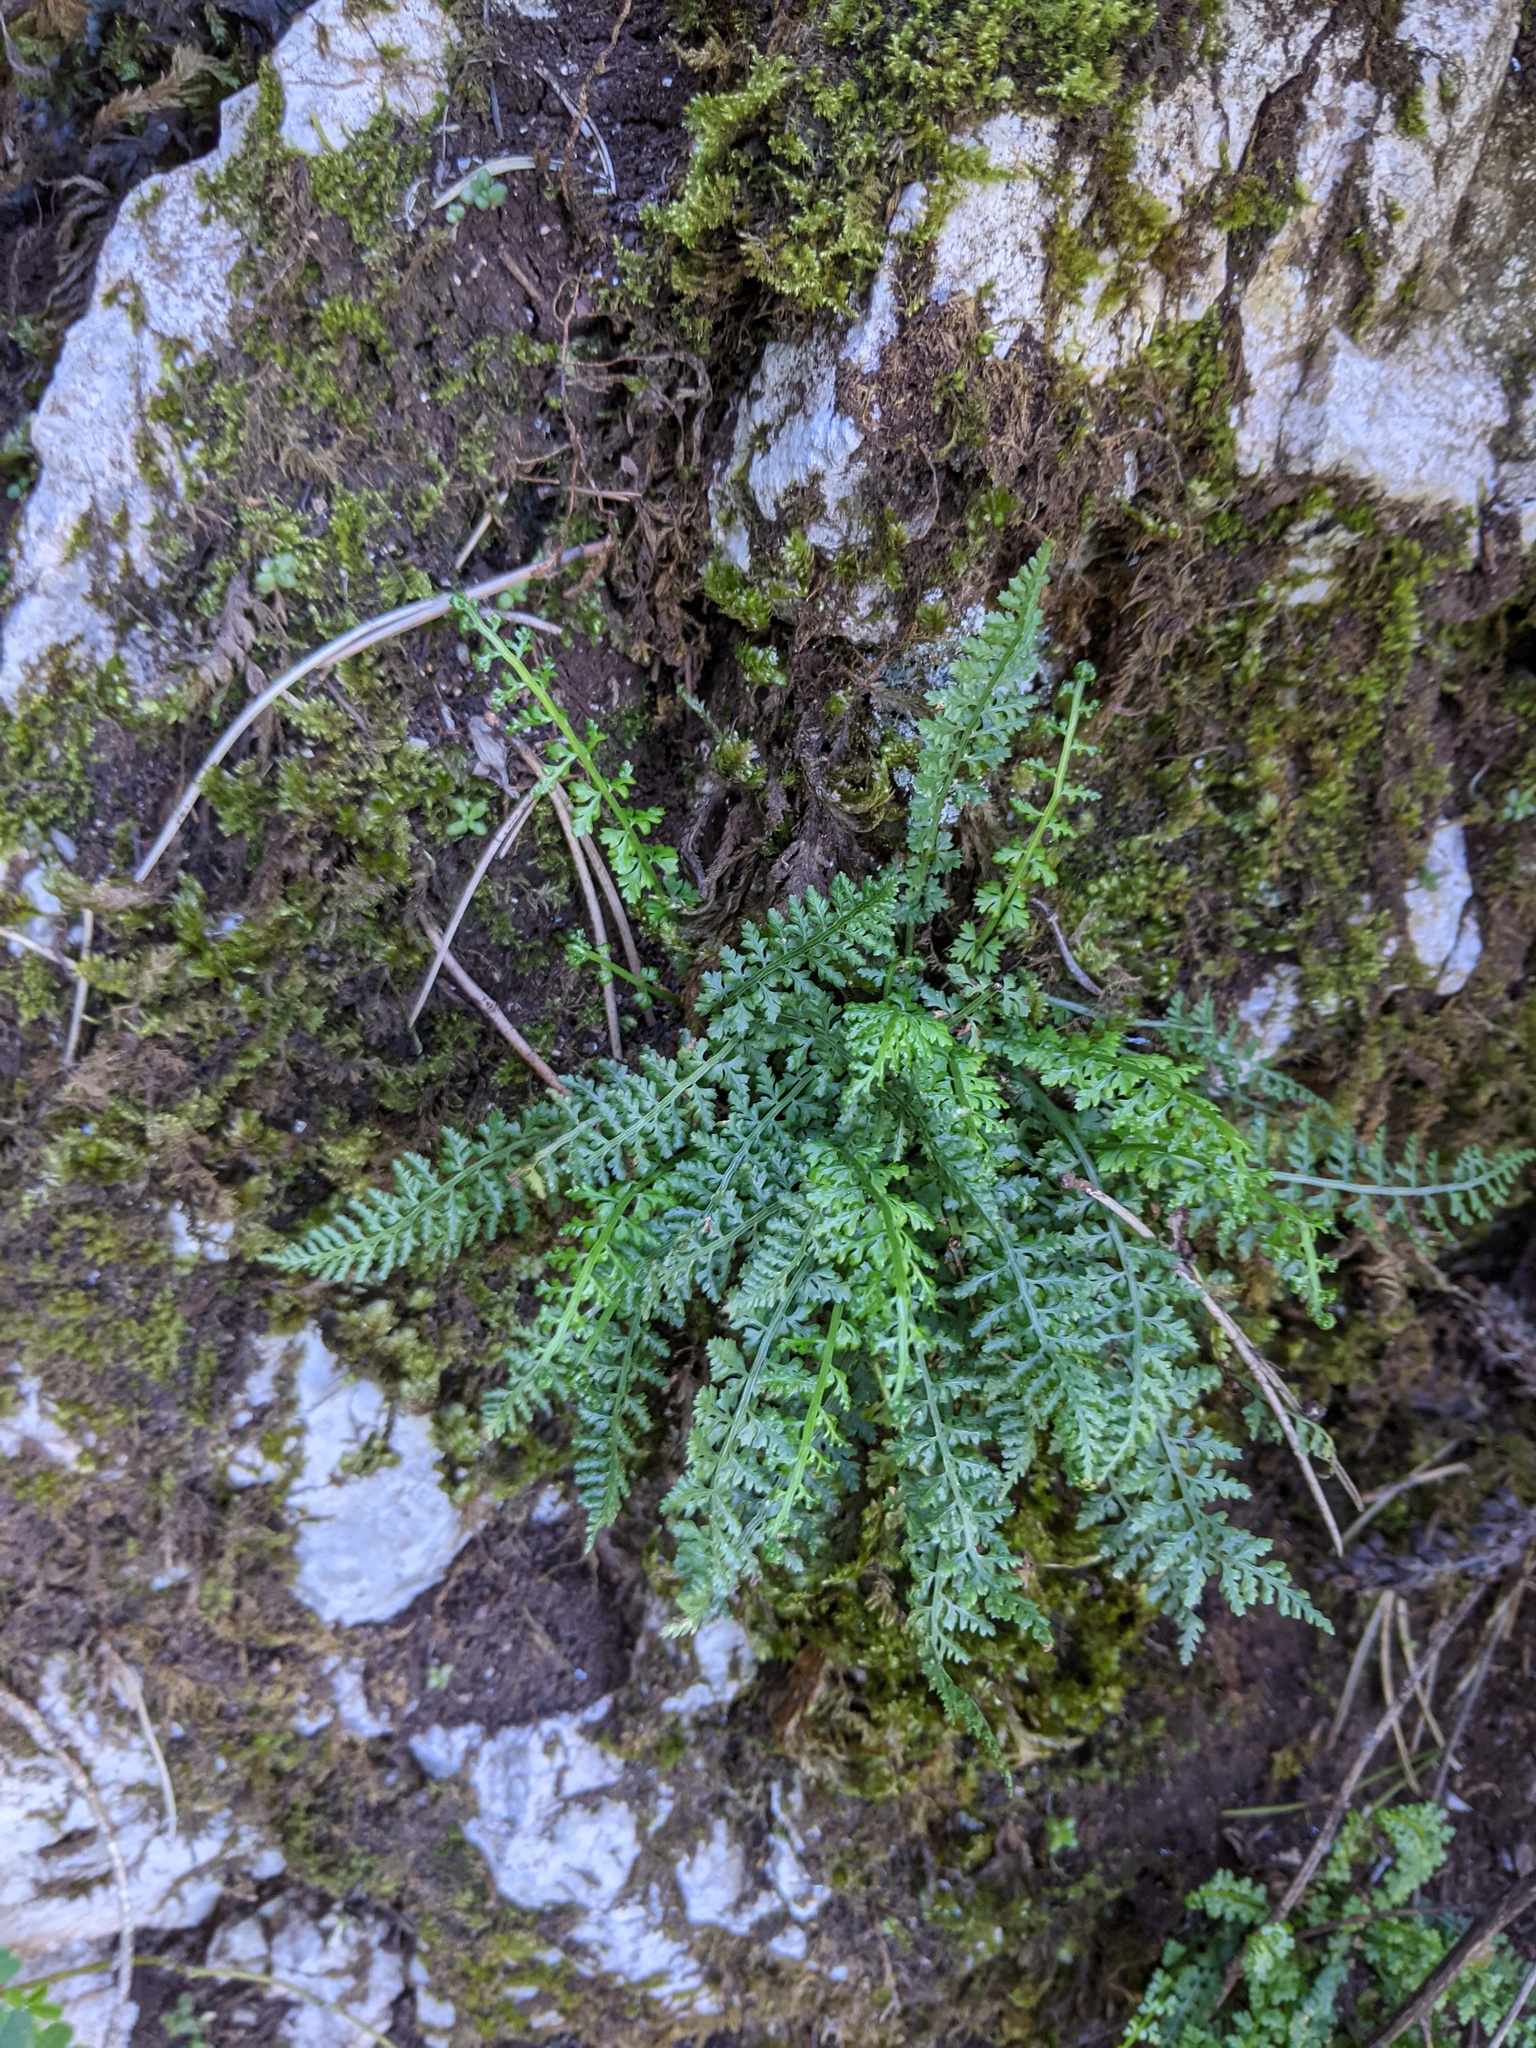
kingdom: Plantae
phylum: Tracheophyta
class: Polypodiopsida
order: Polypodiales
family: Aspleniaceae
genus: Asplenium
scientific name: Asplenium fontanum
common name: Fountain spleenwort
